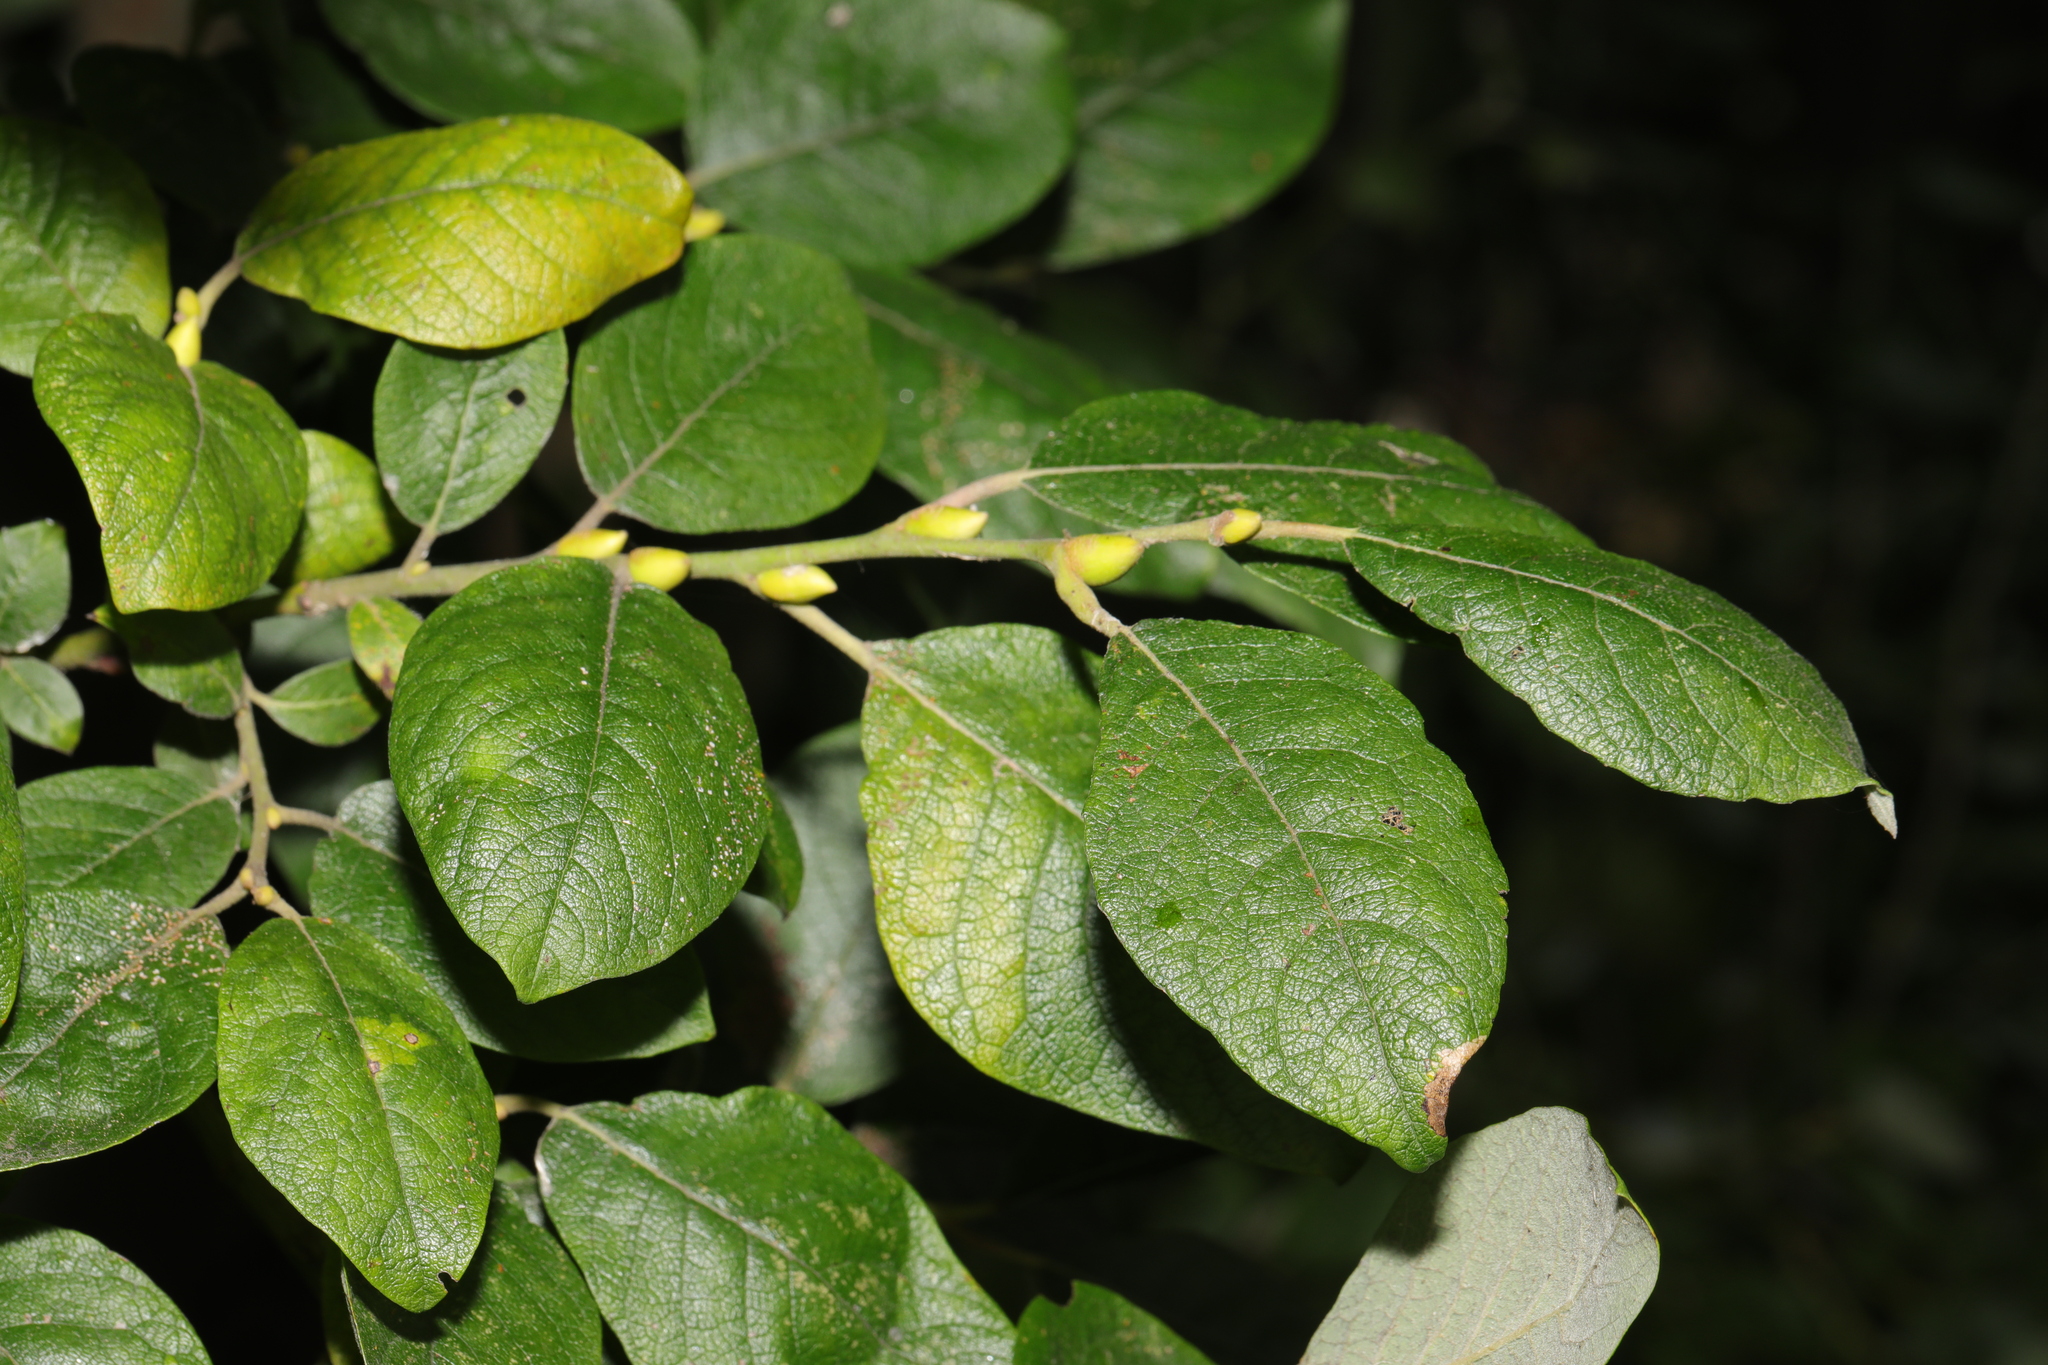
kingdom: Plantae
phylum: Tracheophyta
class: Magnoliopsida
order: Malpighiales
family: Salicaceae
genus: Salix
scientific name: Salix caprea
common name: Goat willow
